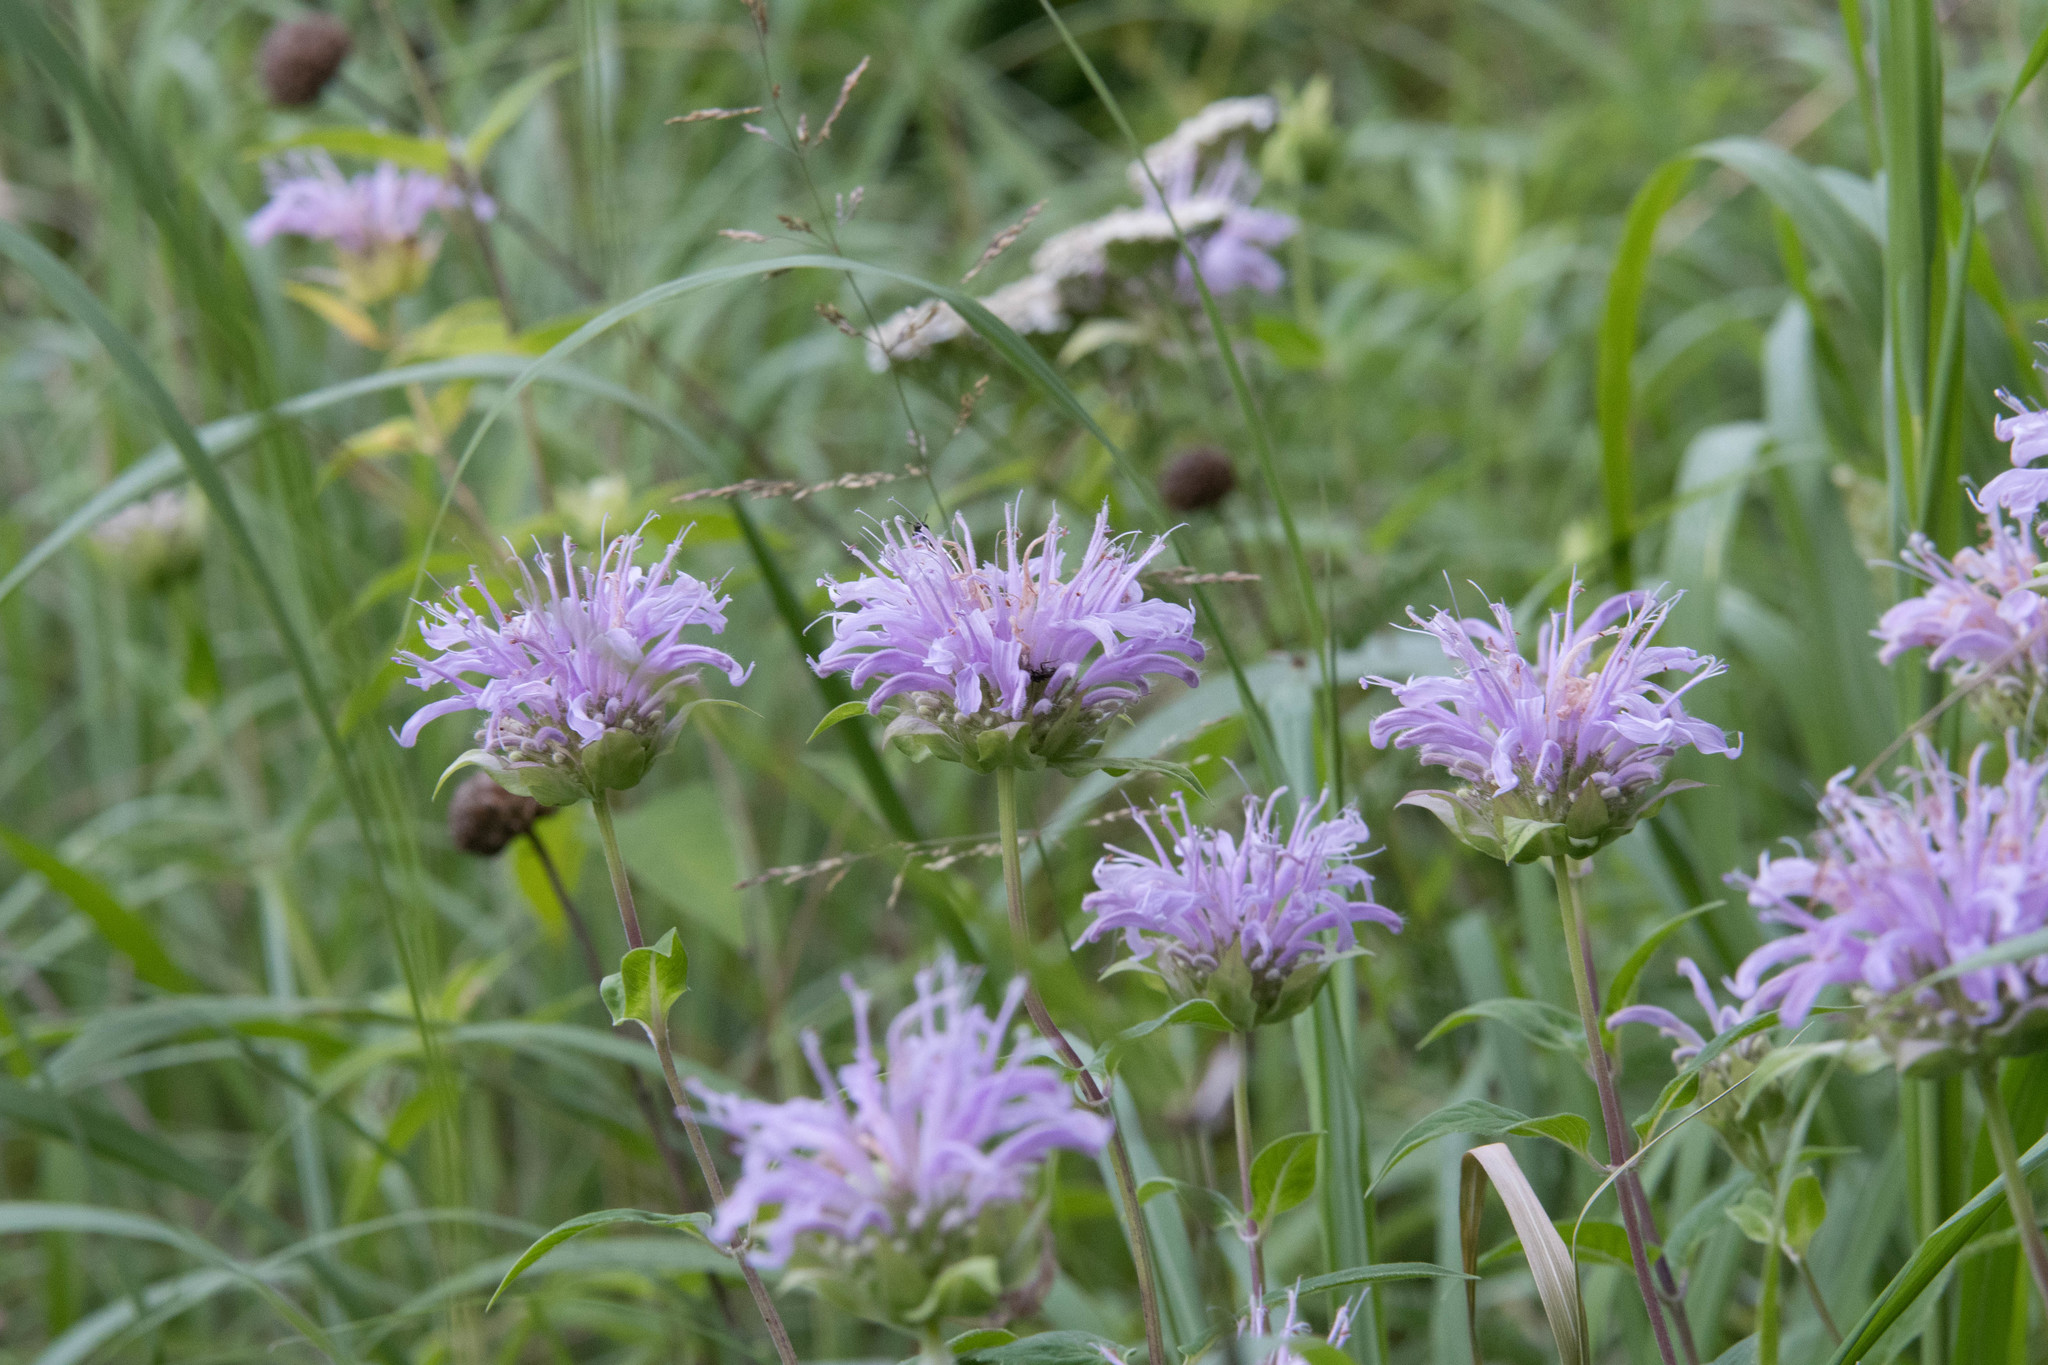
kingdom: Plantae
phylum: Tracheophyta
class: Magnoliopsida
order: Lamiales
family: Lamiaceae
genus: Monarda
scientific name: Monarda fistulosa
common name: Purple beebalm
